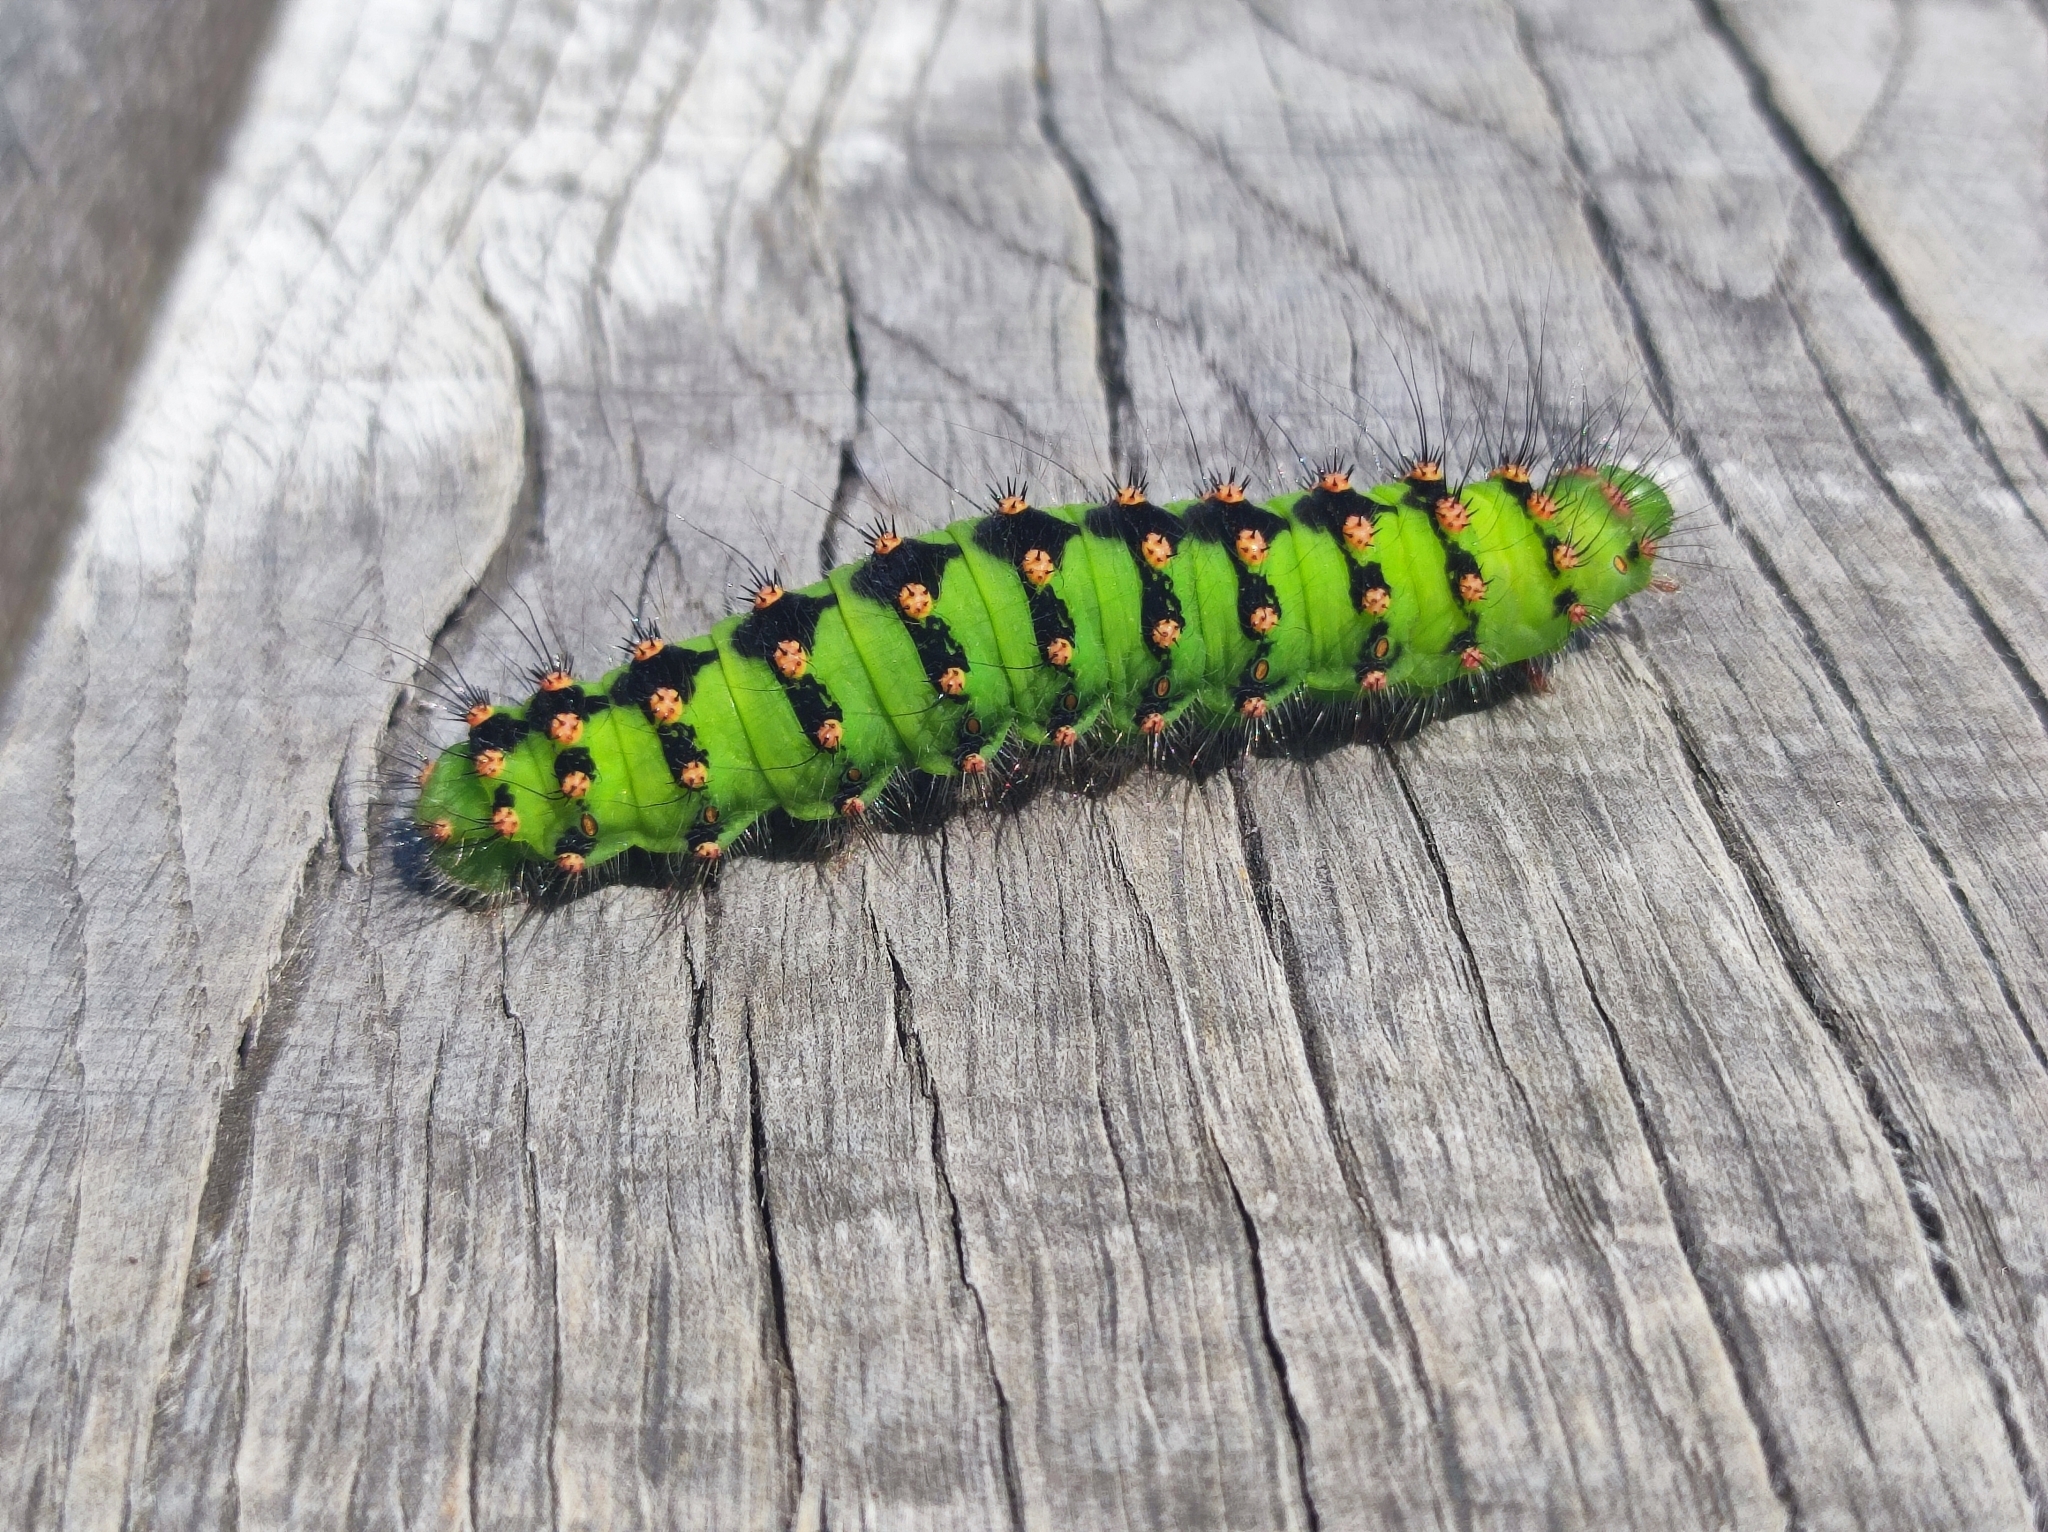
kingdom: Animalia
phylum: Arthropoda
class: Insecta
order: Lepidoptera
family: Saturniidae
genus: Saturnia
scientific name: Saturnia pavoniella
